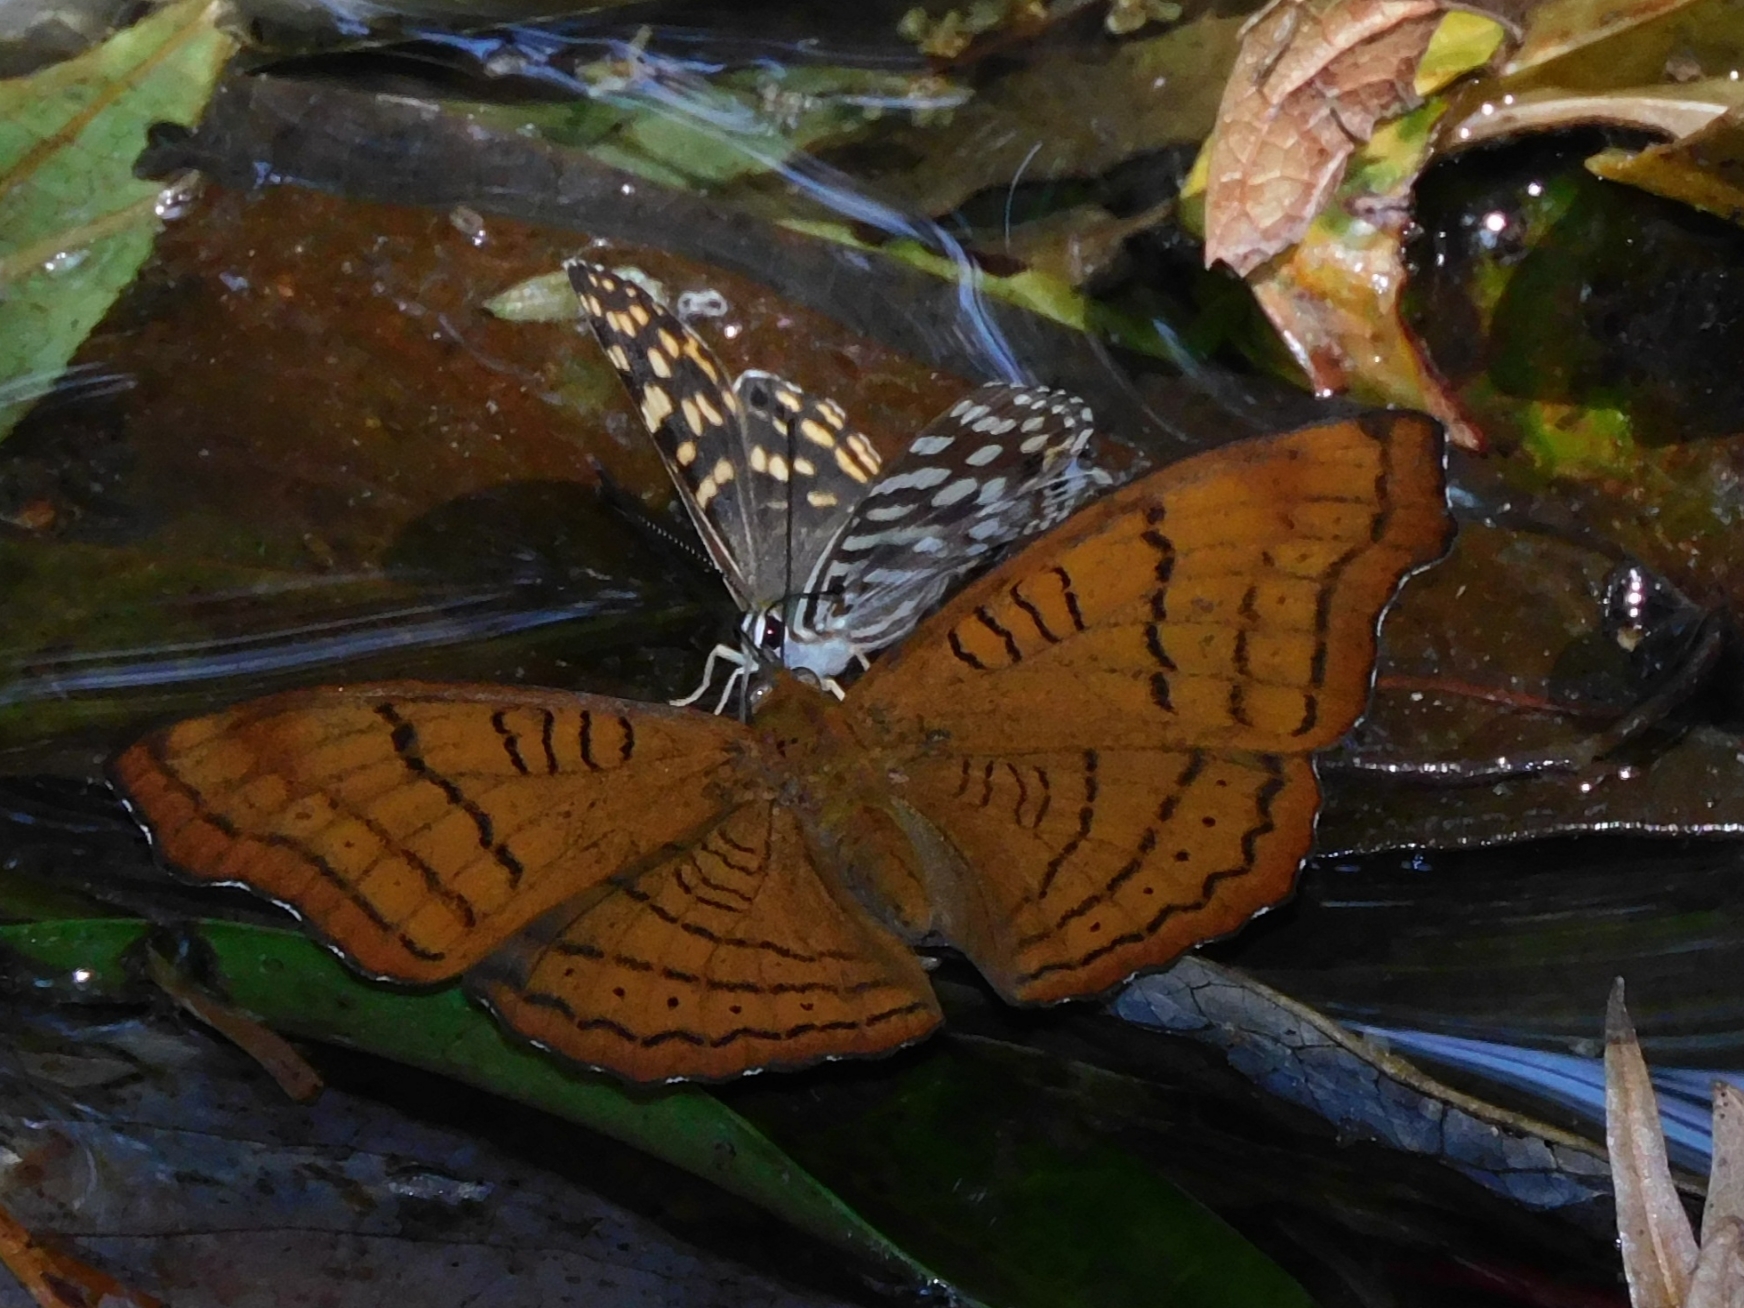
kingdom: Animalia
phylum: Arthropoda
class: Insecta
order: Lepidoptera
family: Nymphalidae
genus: Pseudergolis
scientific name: Pseudergolis wedah
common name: Tabby
